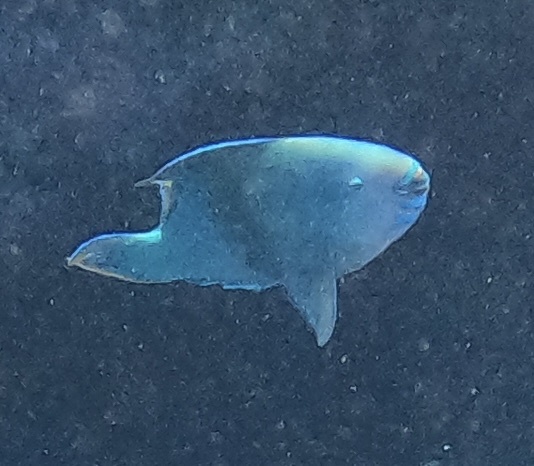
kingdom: Animalia
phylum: Chordata
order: Perciformes
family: Scaridae
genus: Scarus
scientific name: Scarus altipinnis
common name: Minifin parrotfish
